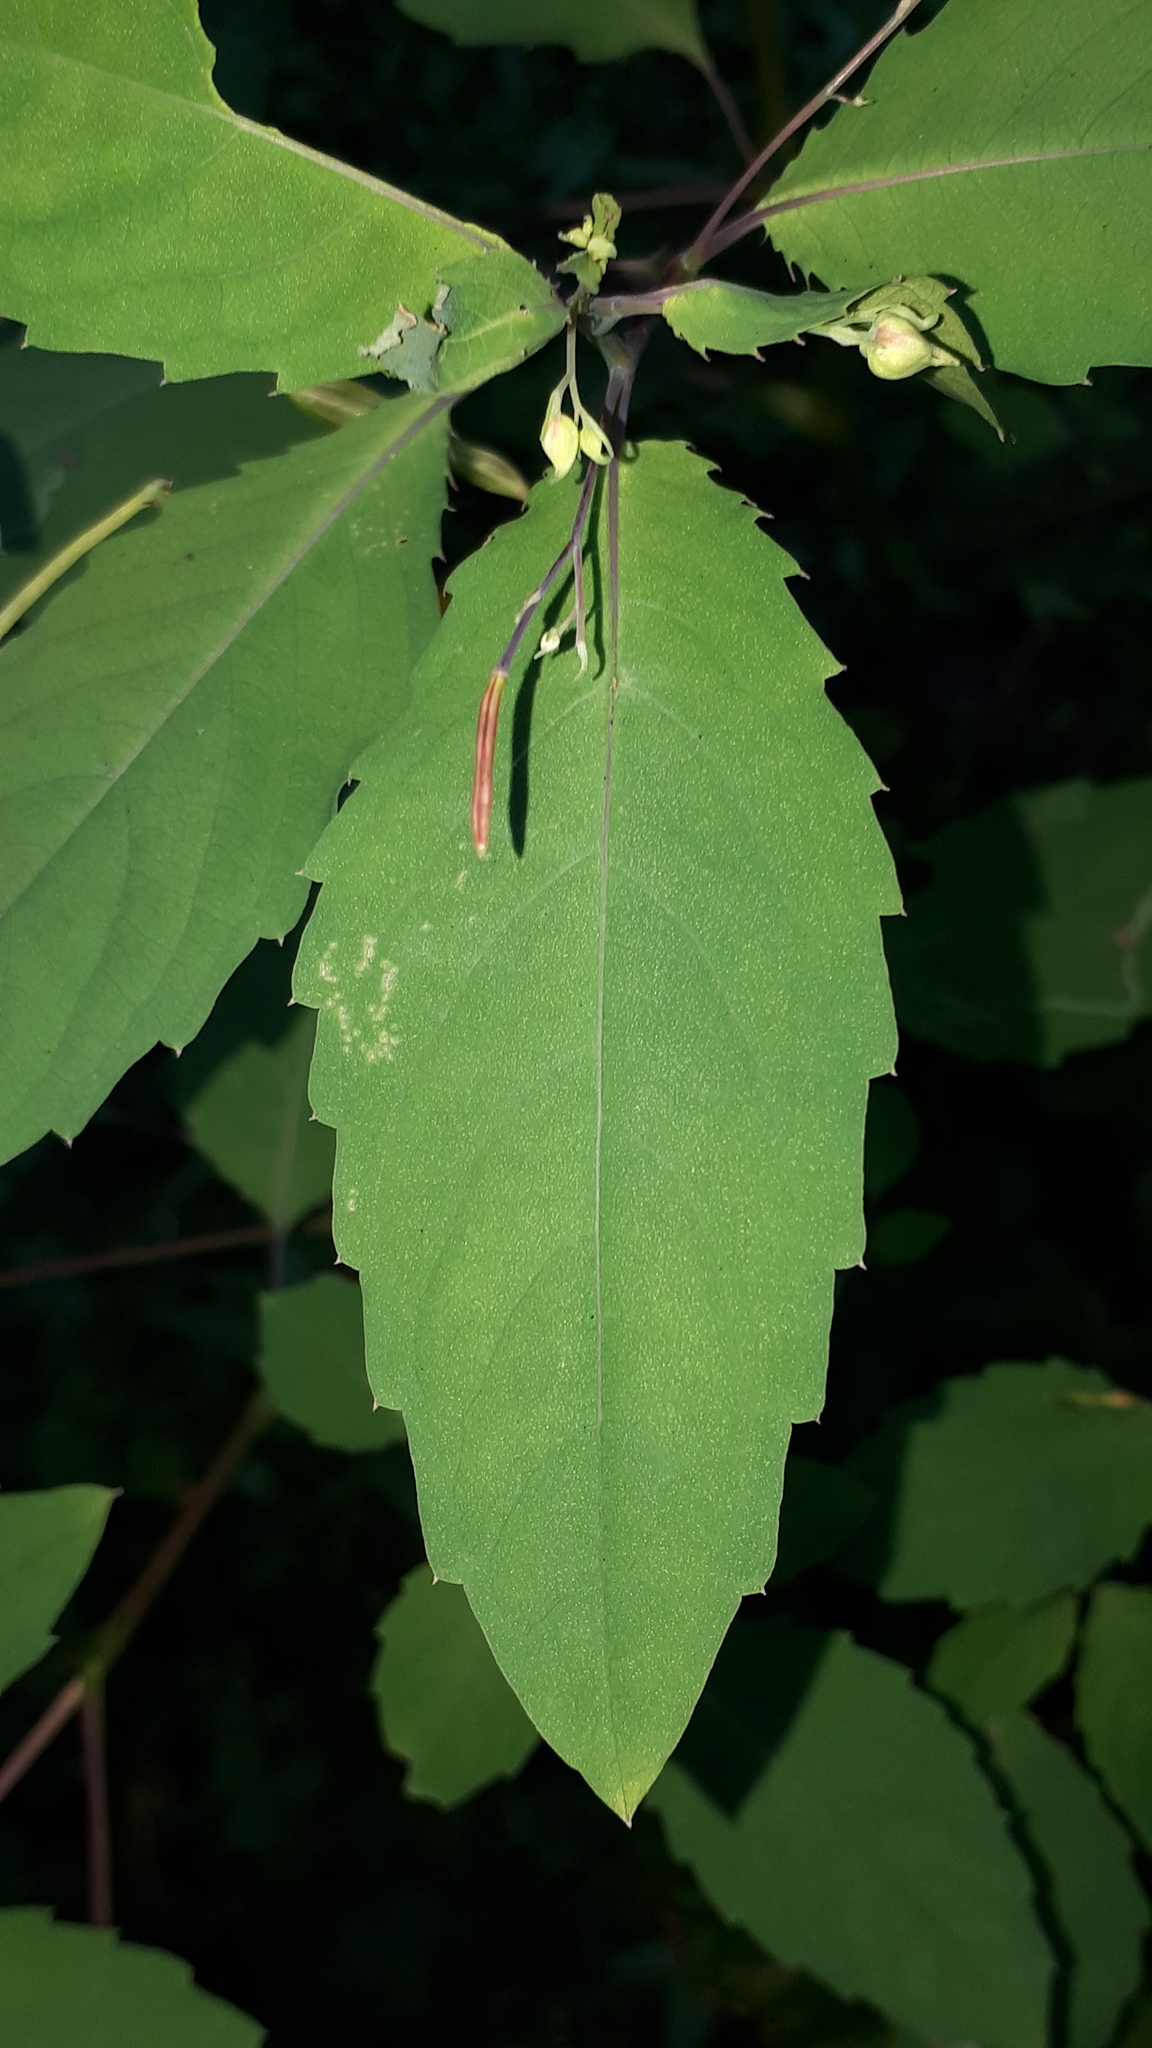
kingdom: Plantae
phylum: Tracheophyta
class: Magnoliopsida
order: Ericales
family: Balsaminaceae
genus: Impatiens
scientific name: Impatiens noli-tangere
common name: Touch-me-not balsam
